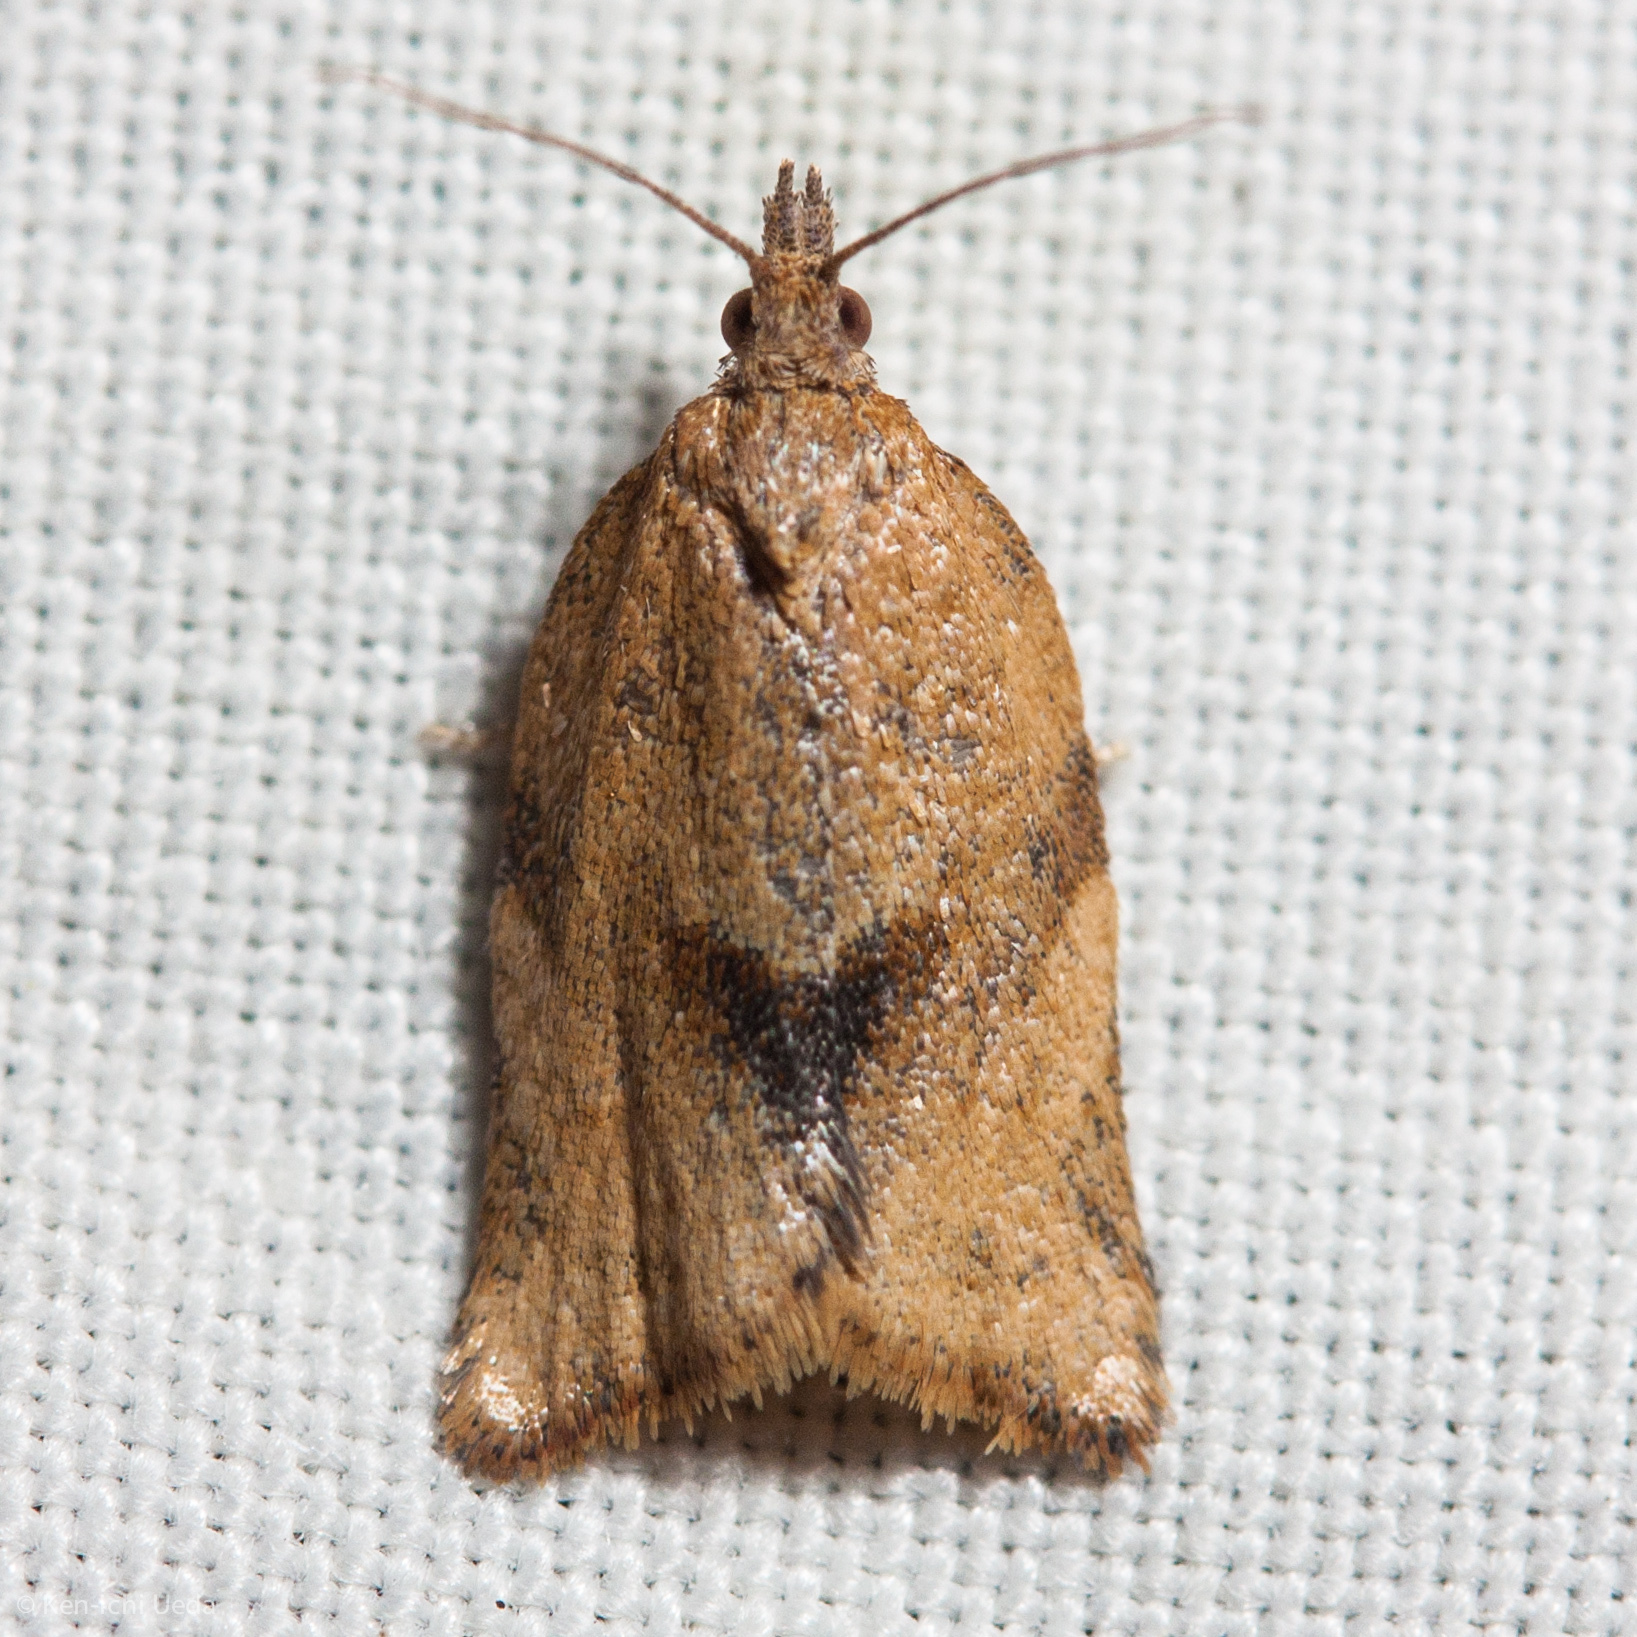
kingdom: Animalia
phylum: Arthropoda
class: Insecta
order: Lepidoptera
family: Tortricidae
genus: Argyrotaenia
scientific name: Argyrotaenia franciscana
